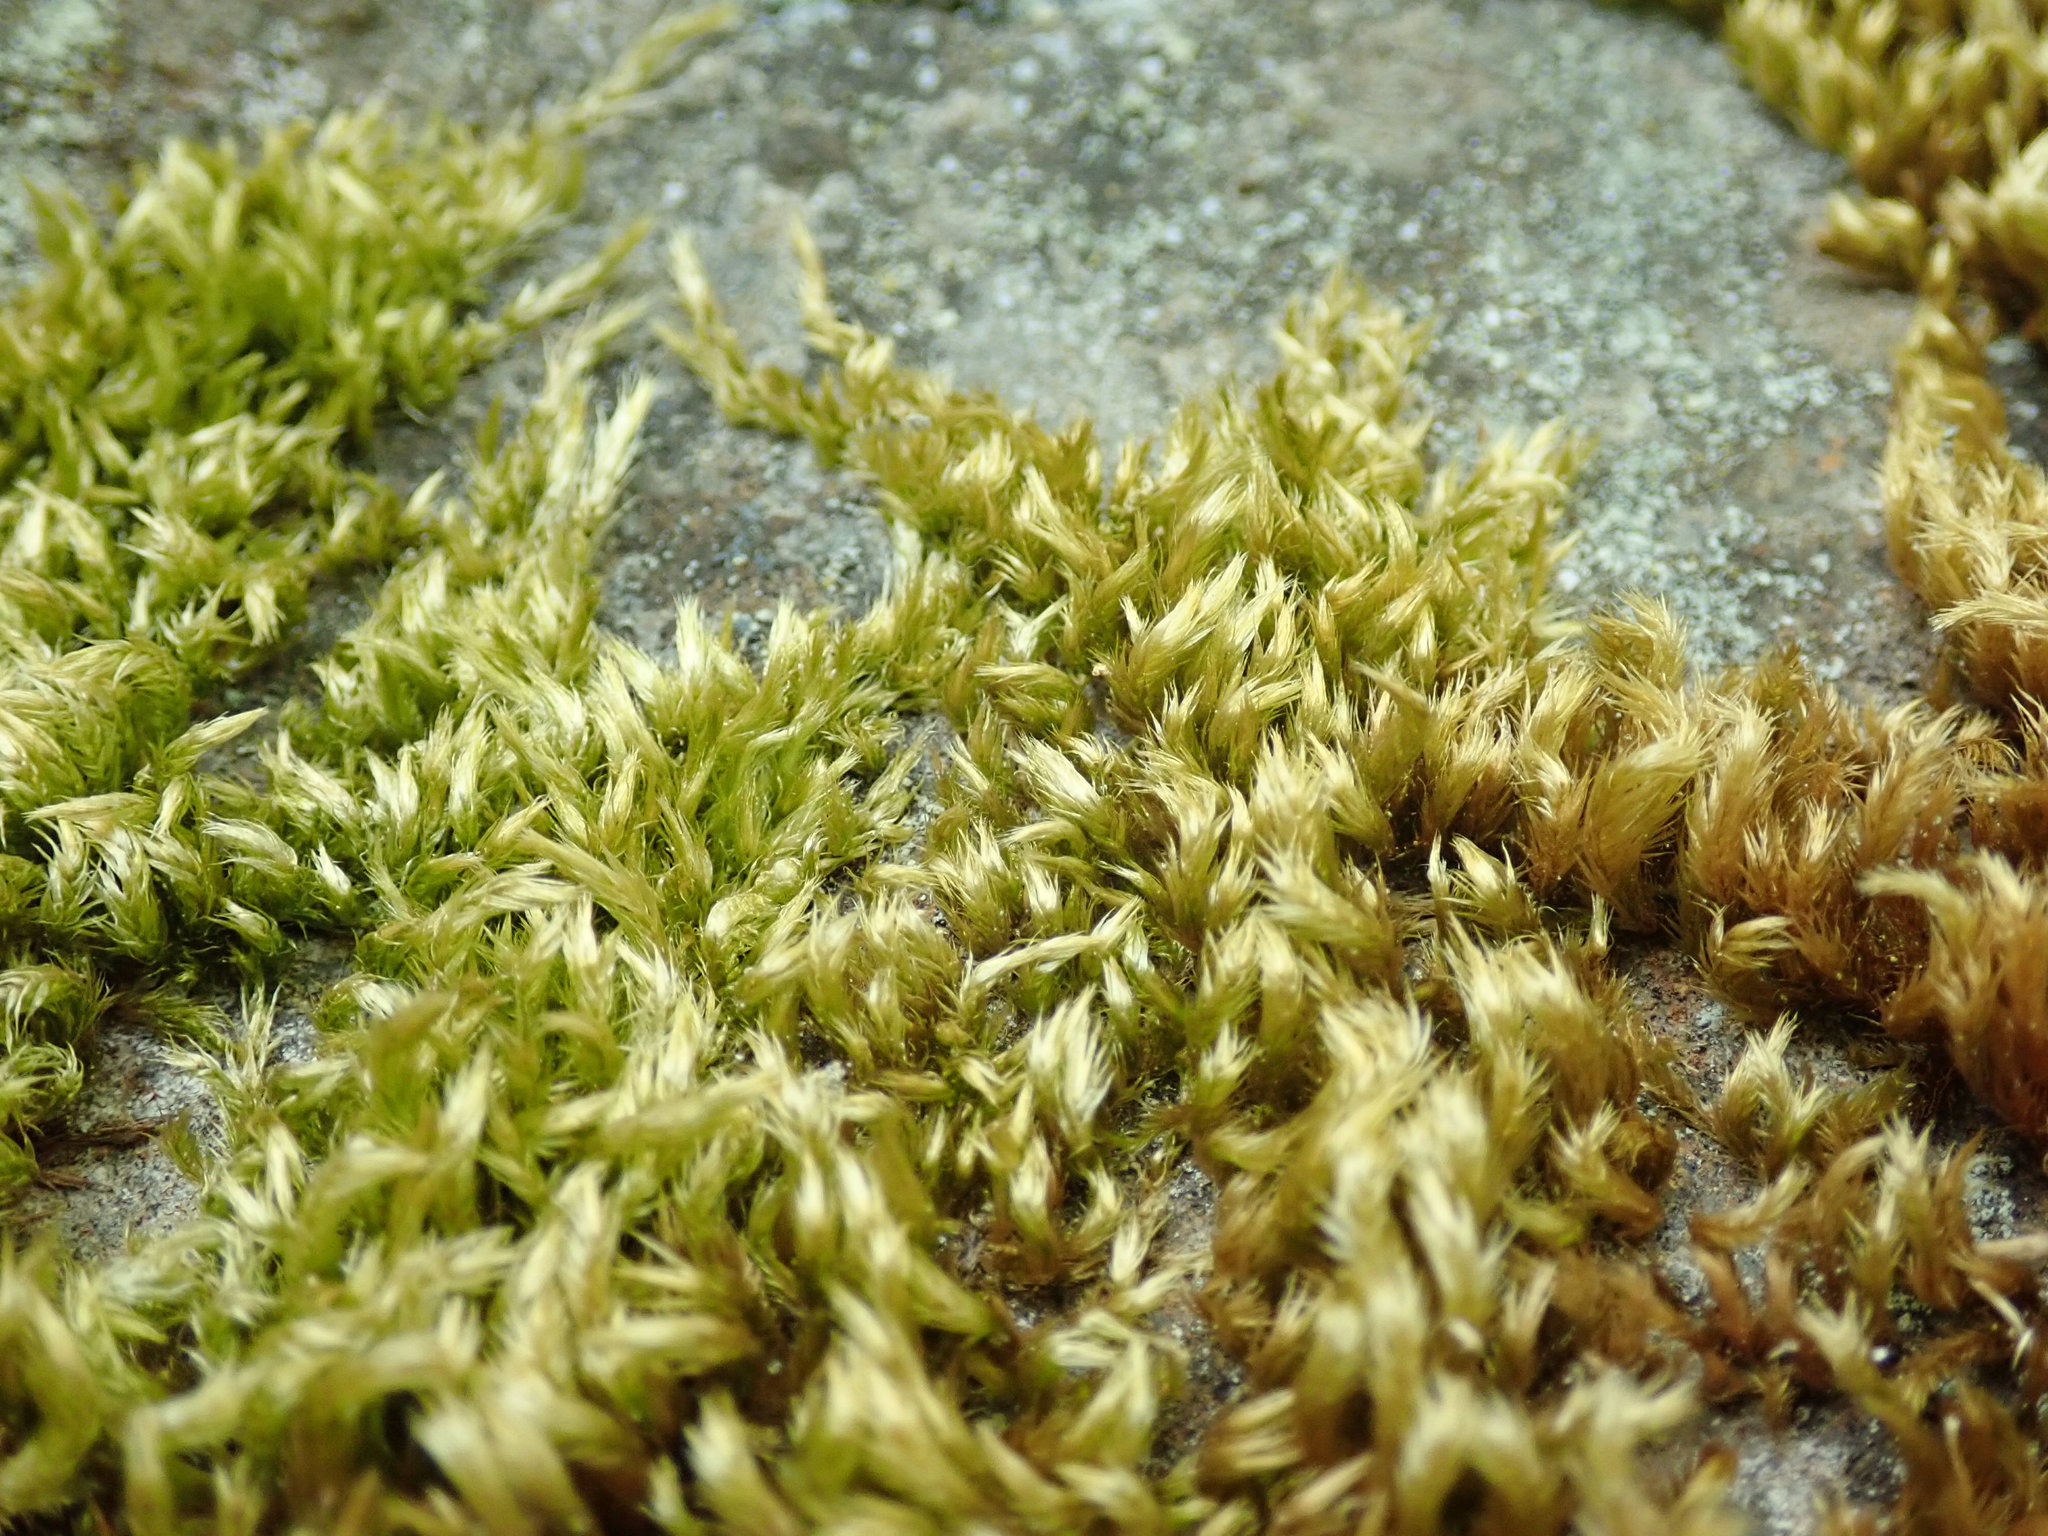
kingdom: Plantae
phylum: Bryophyta
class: Bryopsida
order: Hypnales
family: Brachytheciaceae
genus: Homalothecium
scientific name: Homalothecium fulgescens
